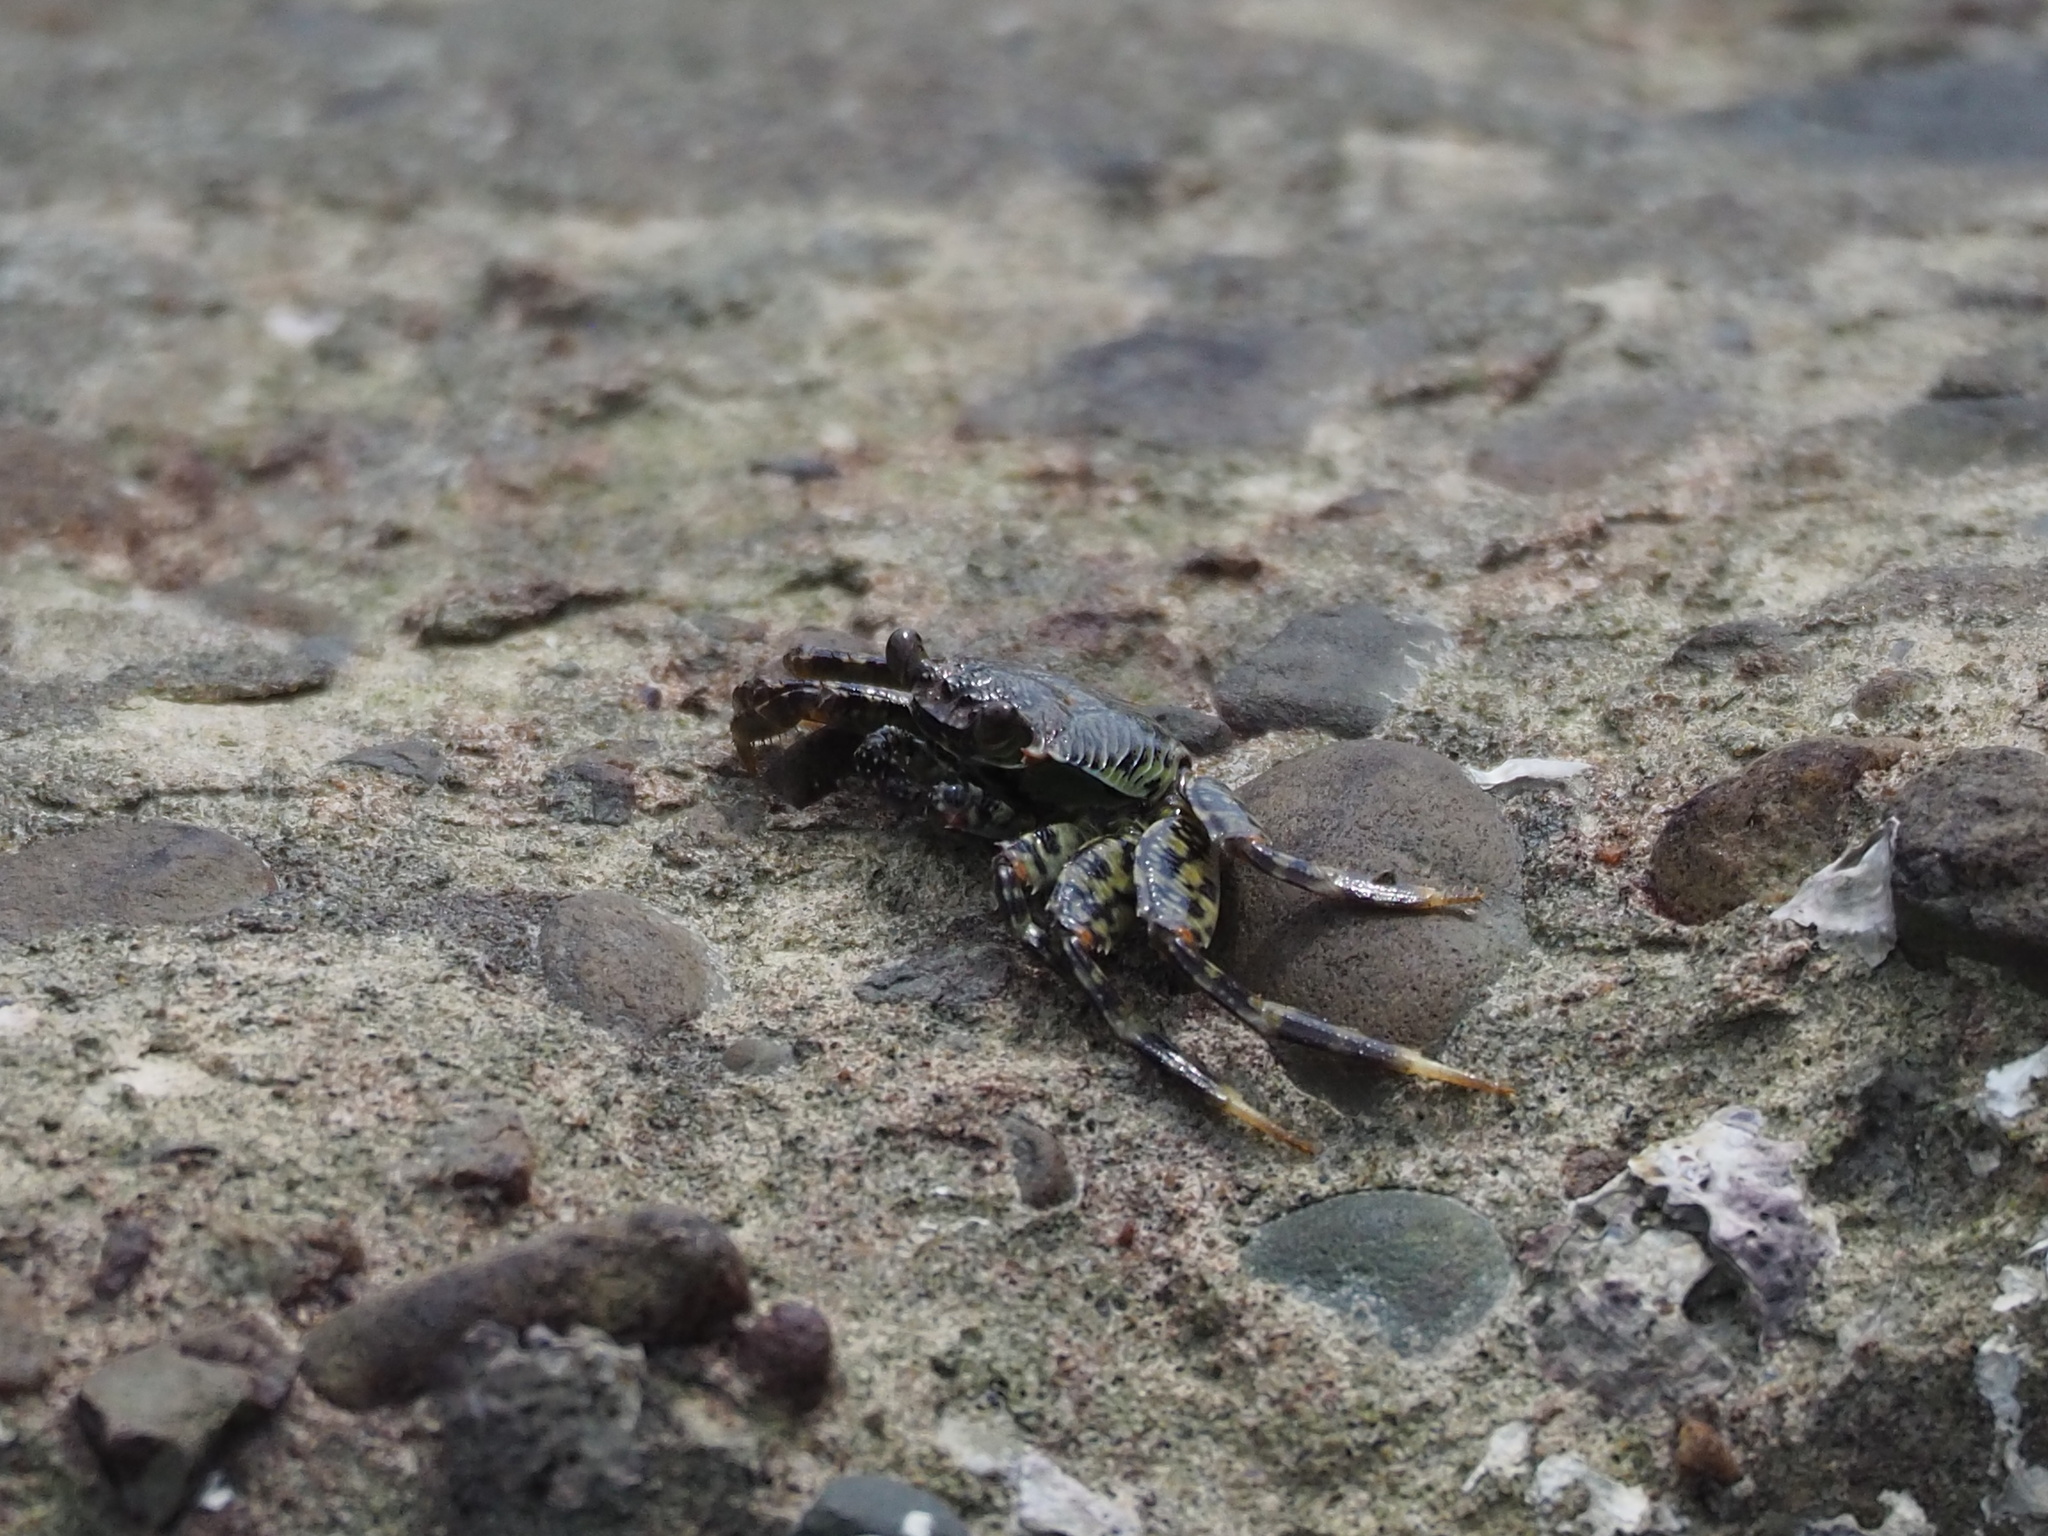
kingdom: Animalia
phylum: Arthropoda
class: Malacostraca
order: Decapoda
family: Grapsidae
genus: Grapsus
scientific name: Grapsus albolineatus
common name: Mottled lightfoot crab
